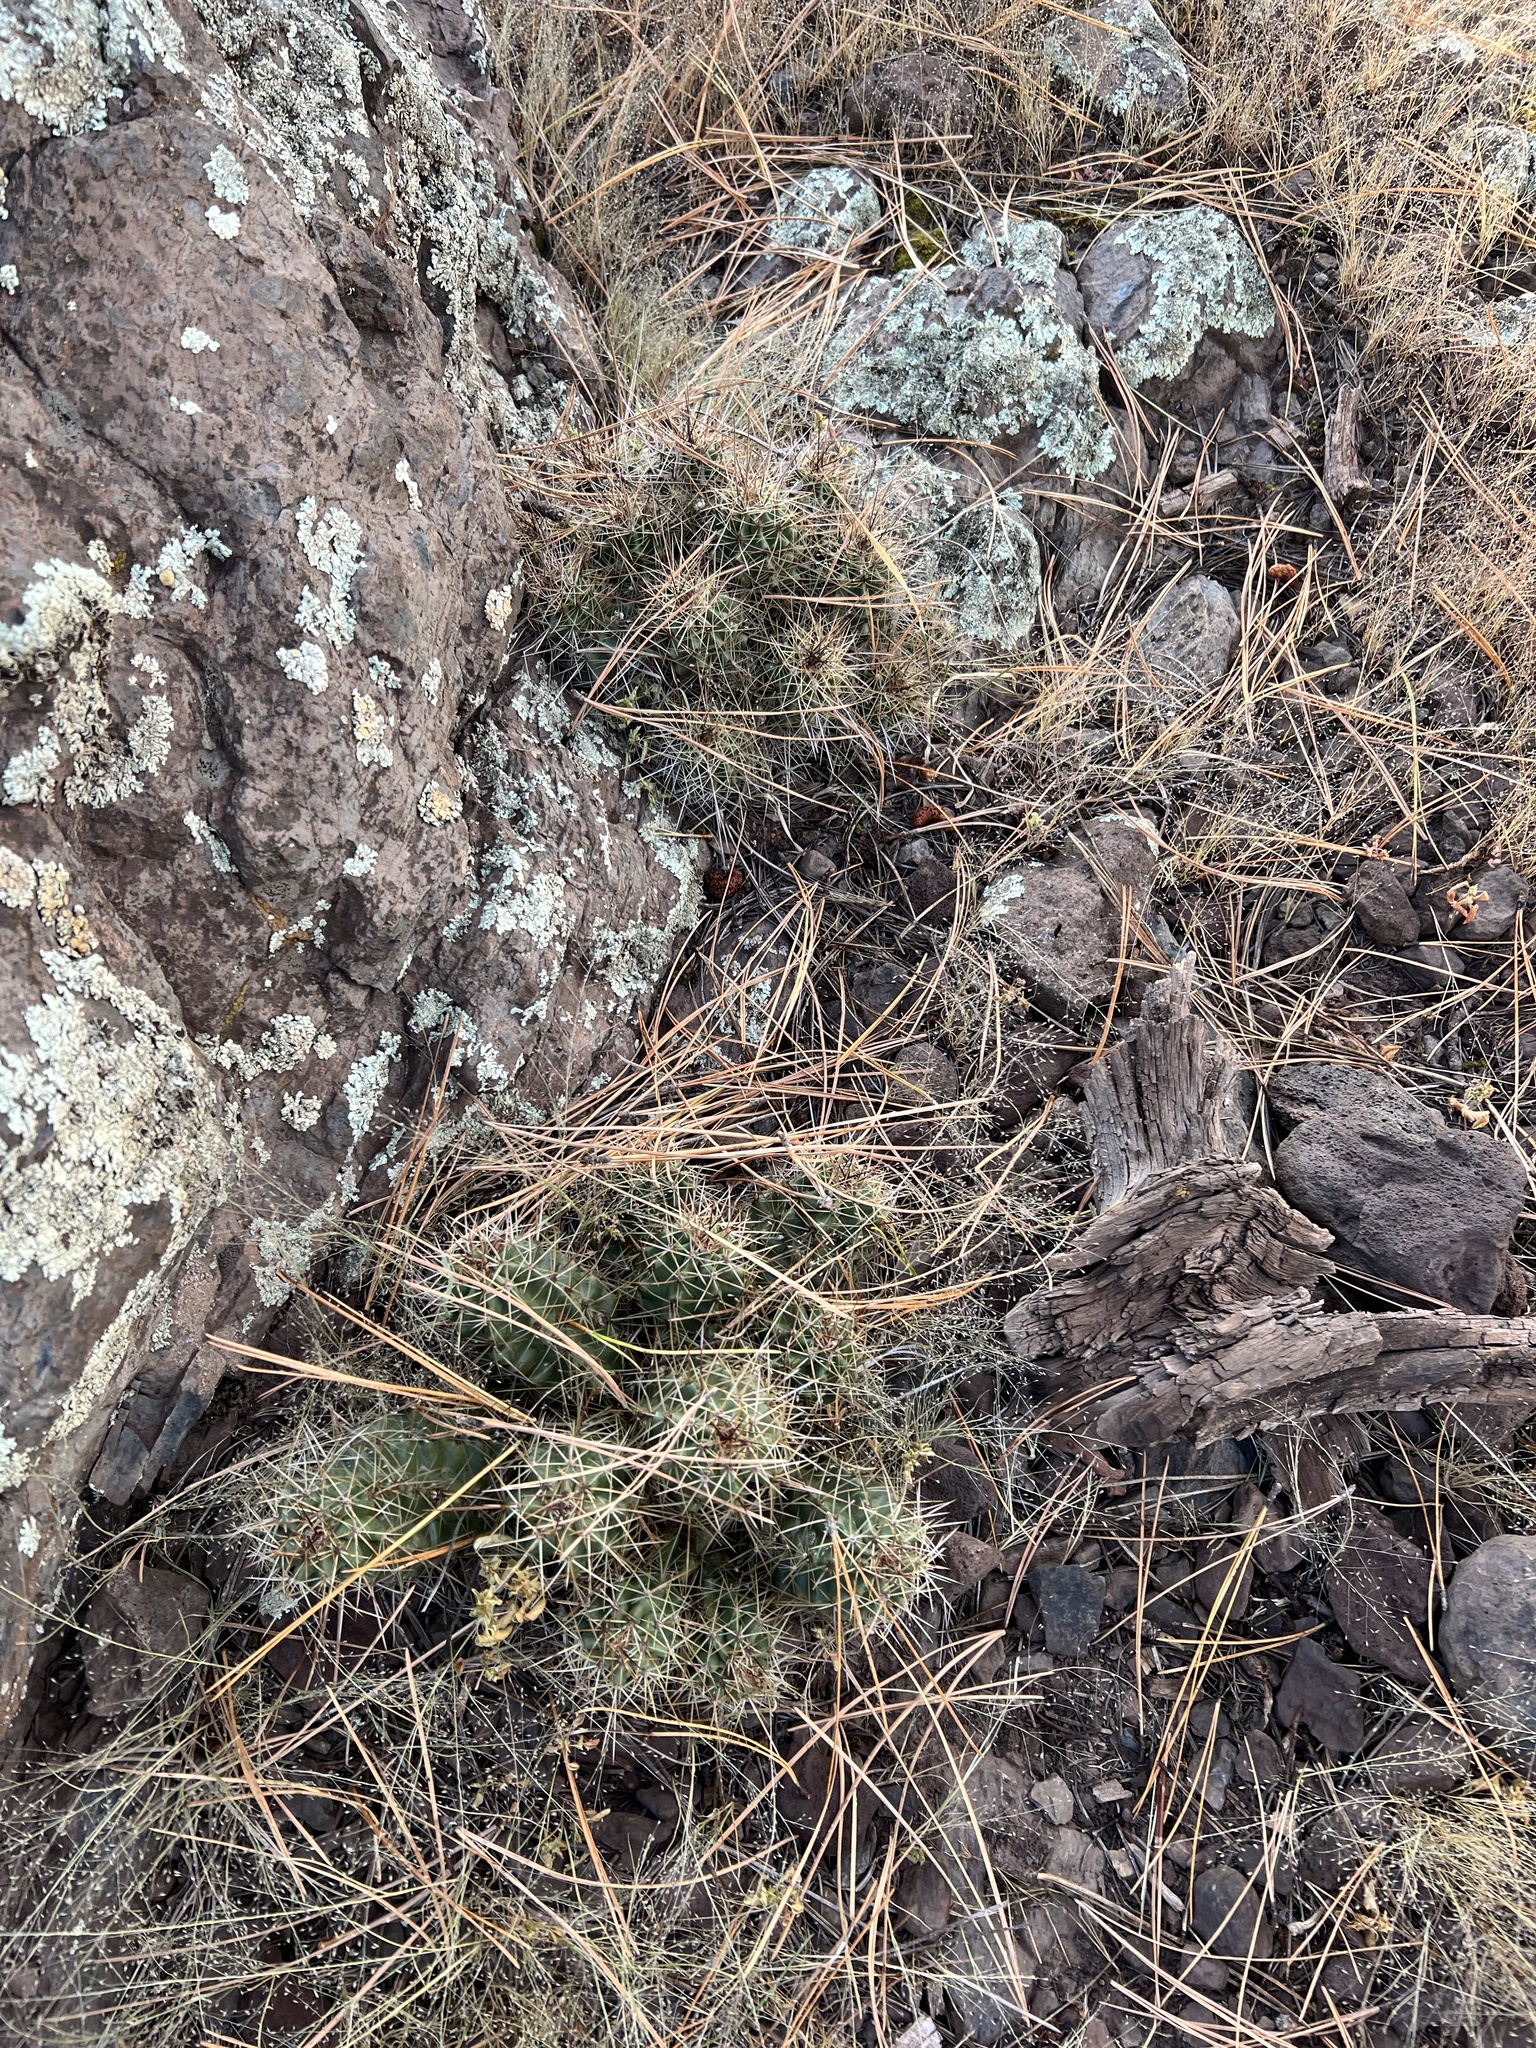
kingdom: Plantae
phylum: Tracheophyta
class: Magnoliopsida
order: Caryophyllales
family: Cactaceae
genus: Echinocereus
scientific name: Echinocereus bakeri
